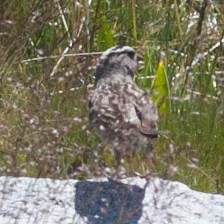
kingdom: Animalia
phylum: Chordata
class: Aves
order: Passeriformes
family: Passerellidae
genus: Zonotrichia
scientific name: Zonotrichia leucophrys
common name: White-crowned sparrow
